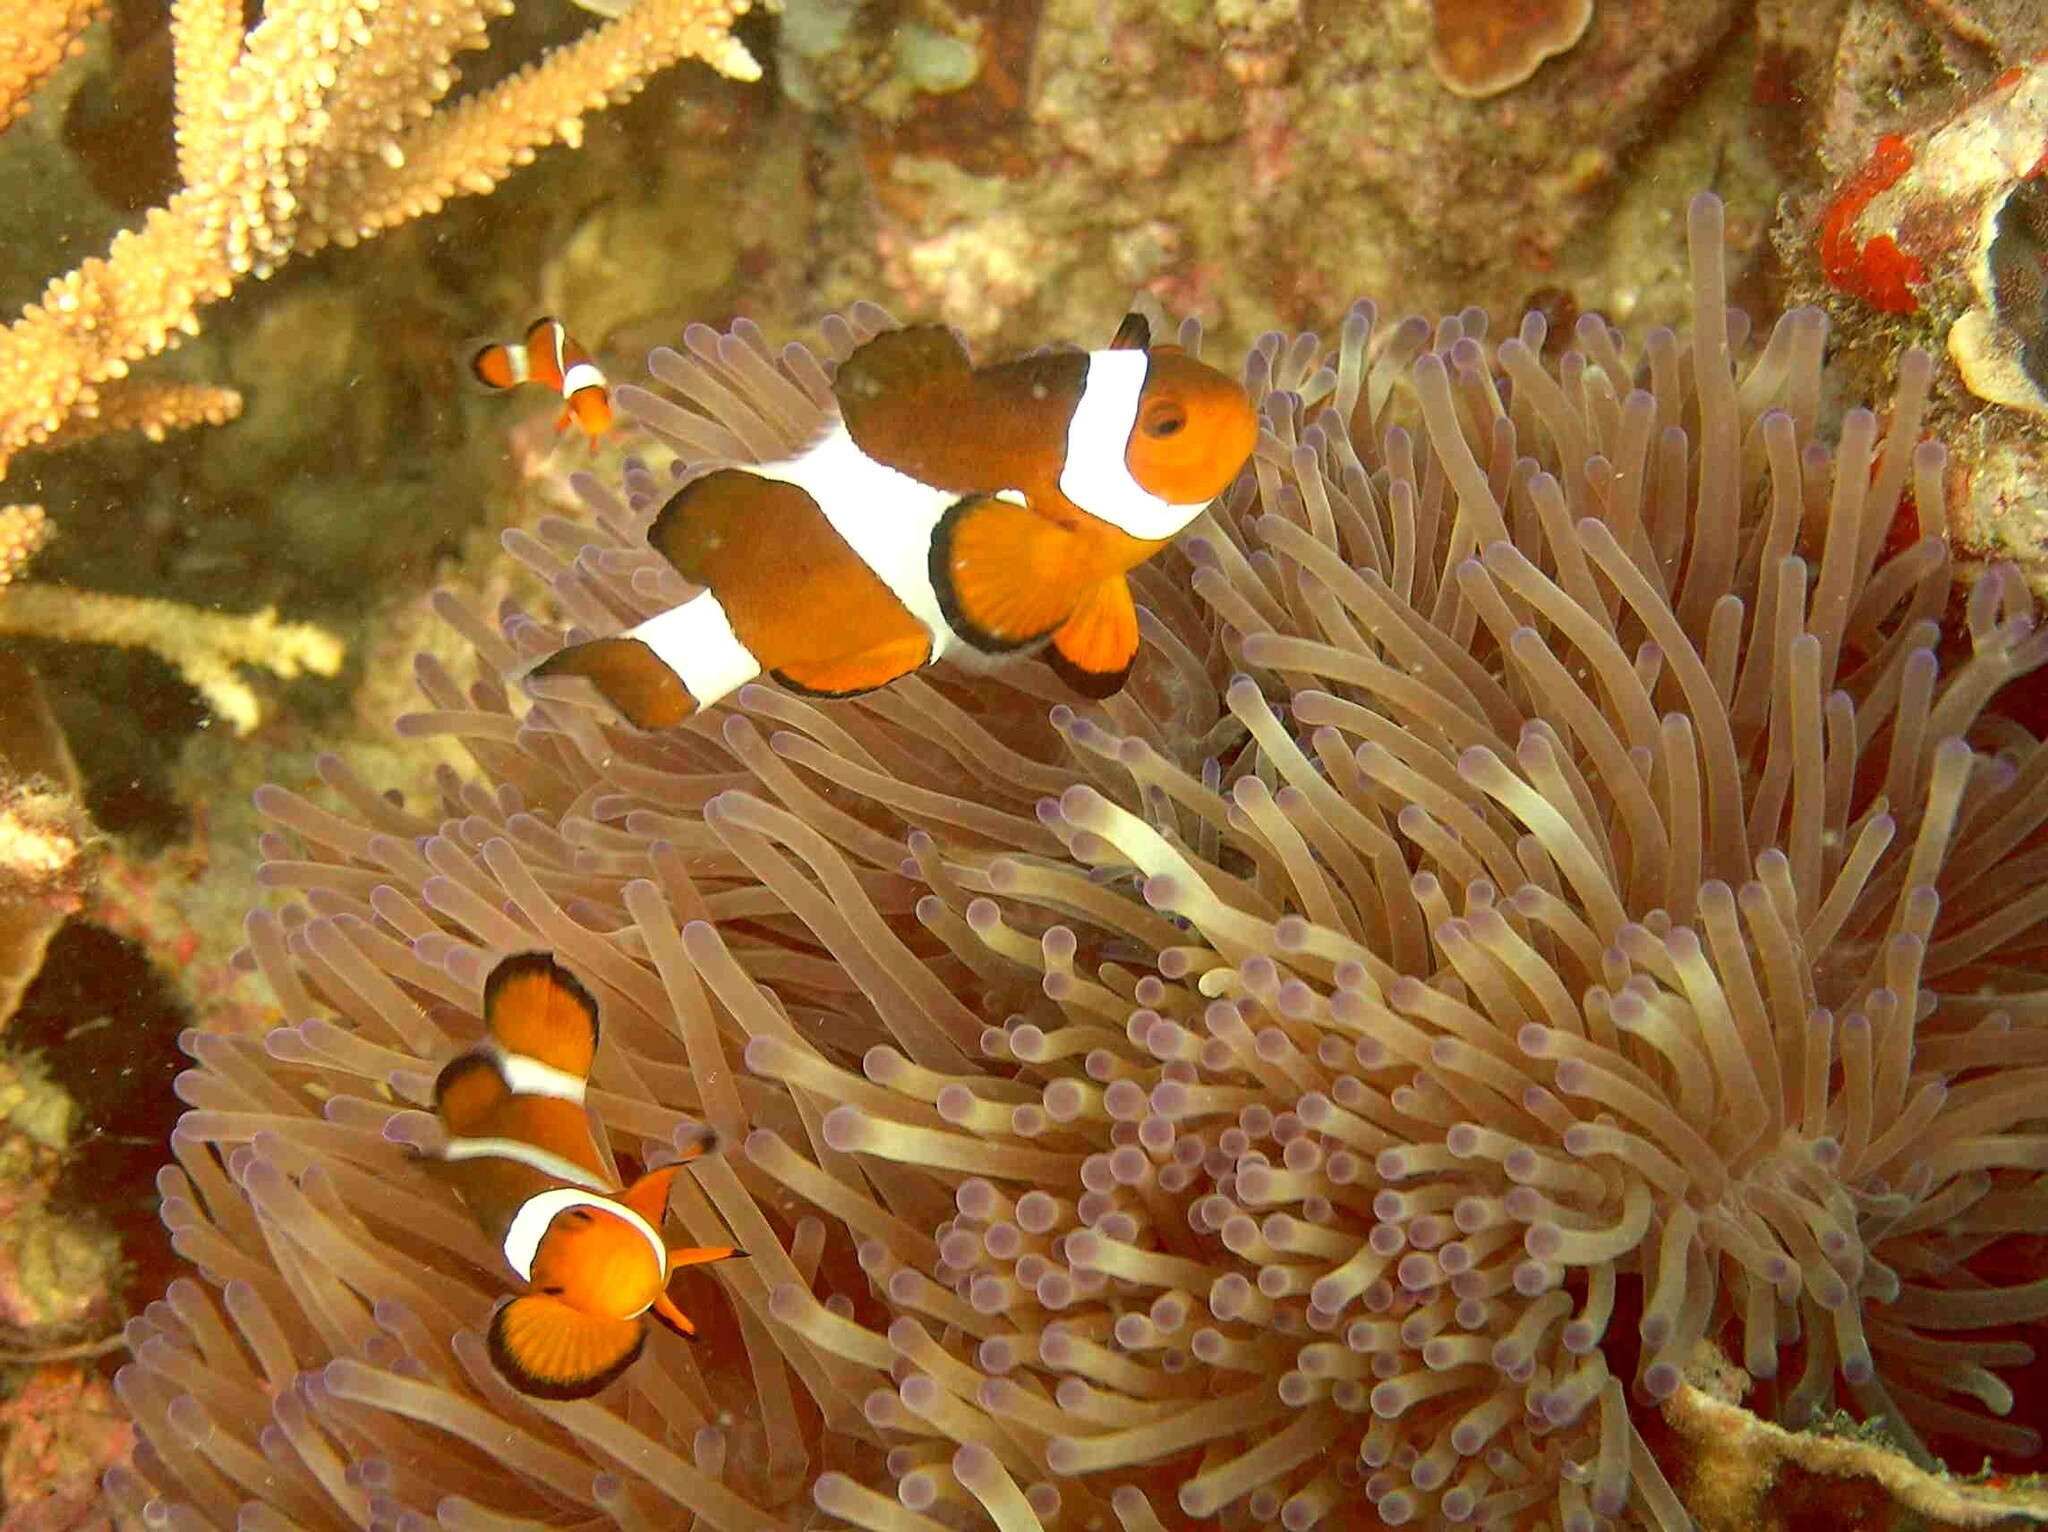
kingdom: Animalia
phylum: Chordata
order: Perciformes
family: Pomacentridae
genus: Amphiprion
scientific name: Amphiprion ocellaris
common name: Clown anemonefish
